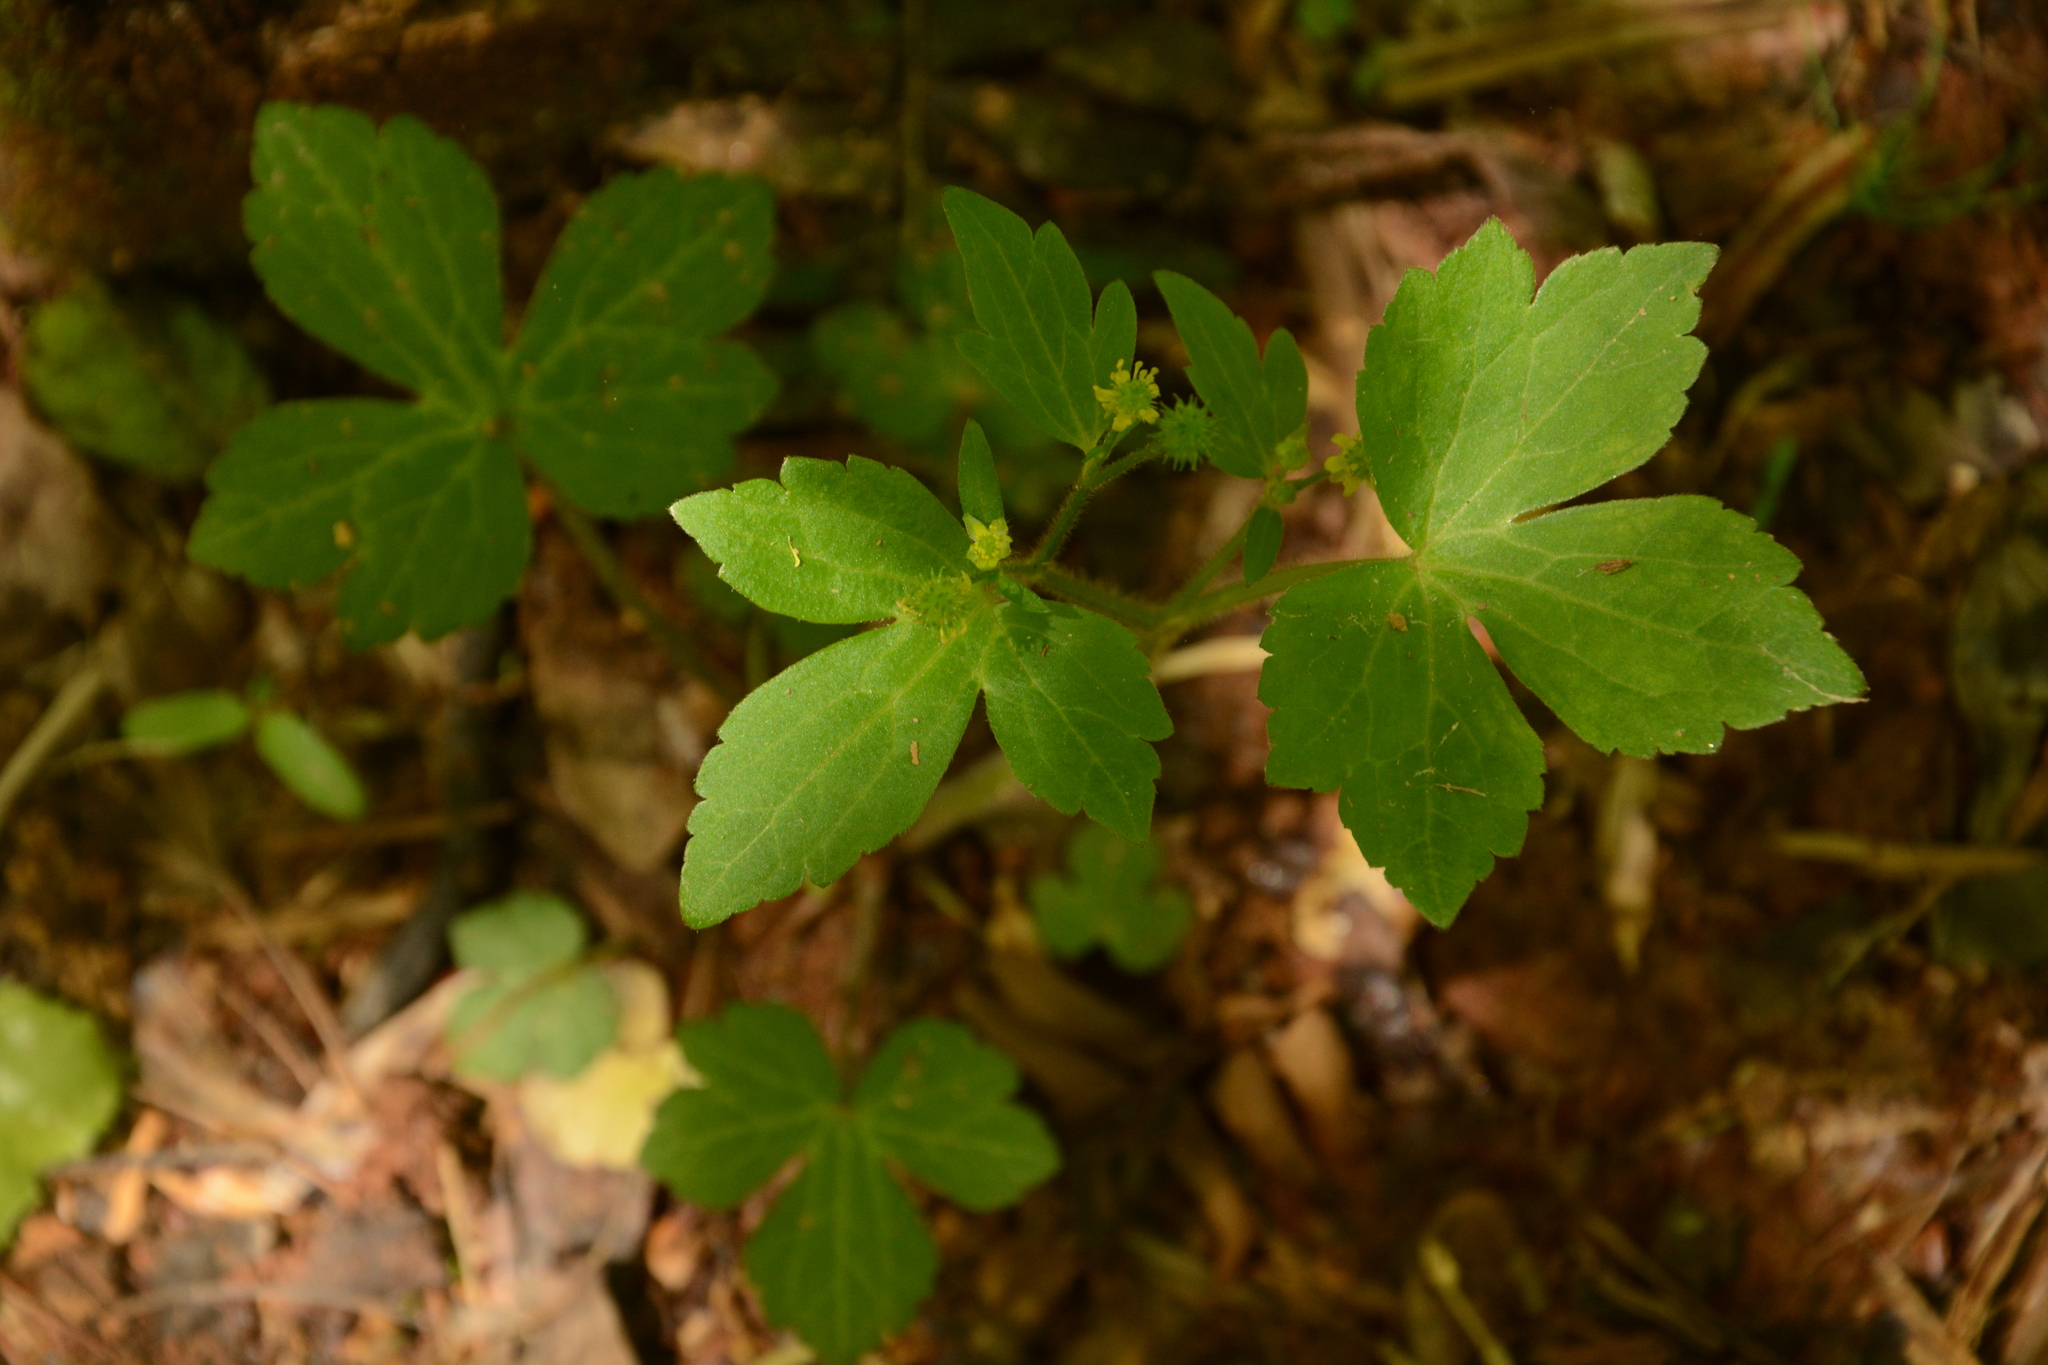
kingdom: Plantae
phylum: Tracheophyta
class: Magnoliopsida
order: Ranunculales
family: Ranunculaceae
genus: Ranunculus
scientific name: Ranunculus recurvatus
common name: Blisterwort
